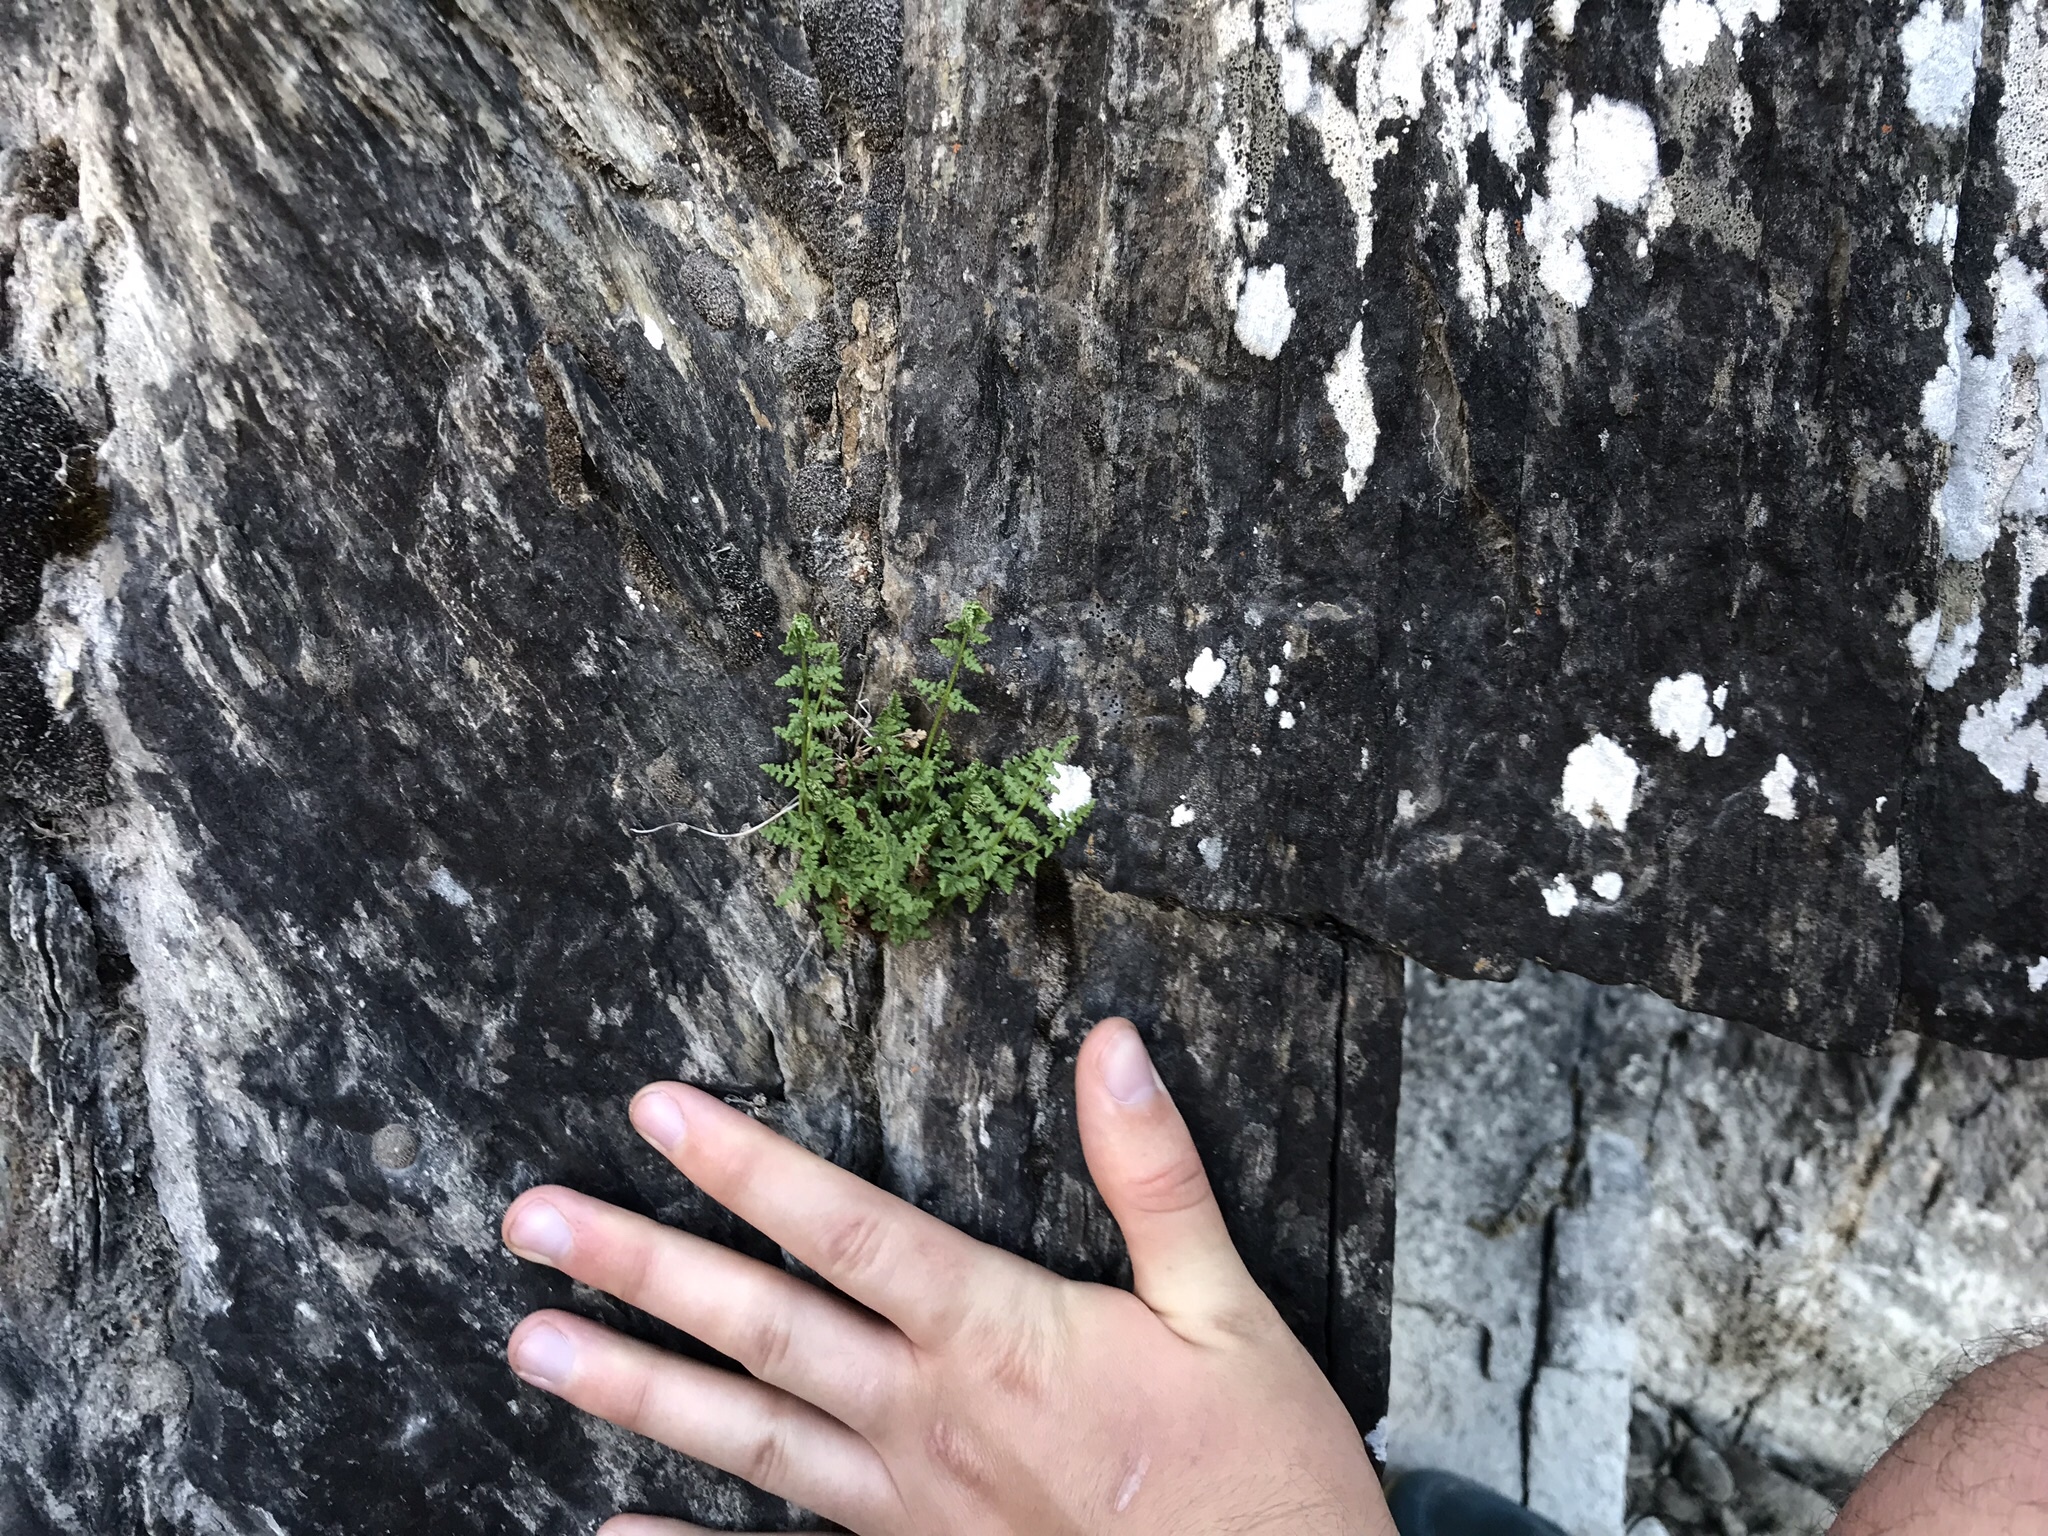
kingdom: Plantae
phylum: Tracheophyta
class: Polypodiopsida
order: Polypodiales
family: Cystopteridaceae
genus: Cystopteris
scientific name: Cystopteris fragilis
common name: Brittle bladder fern
